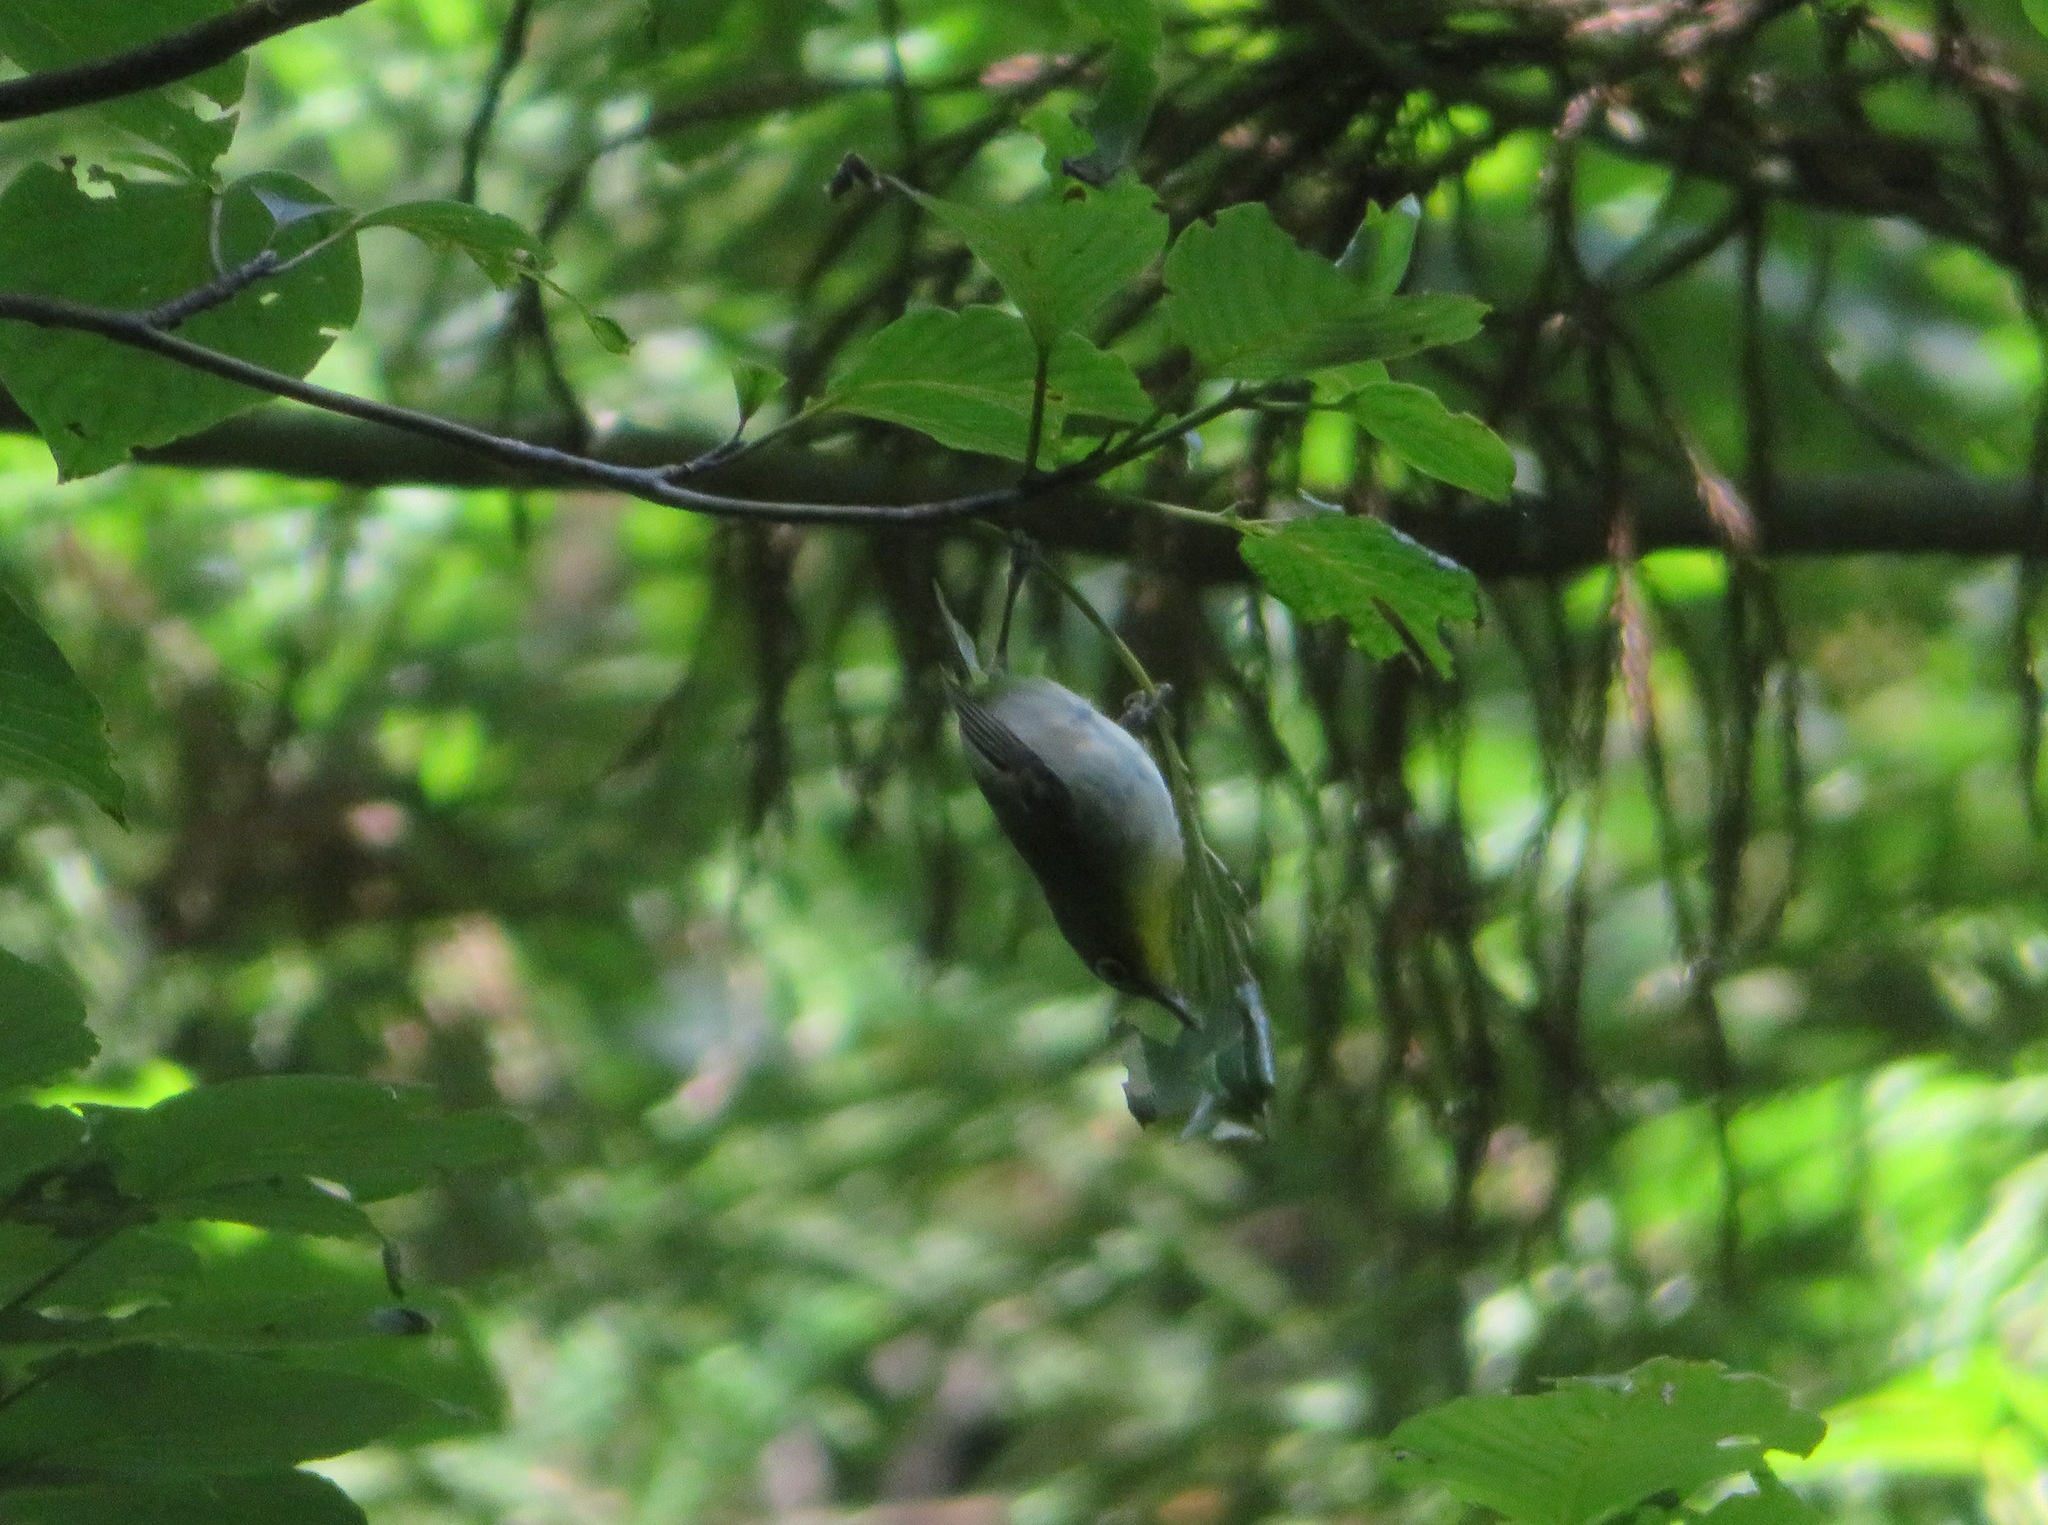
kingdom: Animalia
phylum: Chordata
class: Aves
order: Passeriformes
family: Zosteropidae
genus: Zosterops
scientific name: Zosterops japonicus
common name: Japanese white-eye
